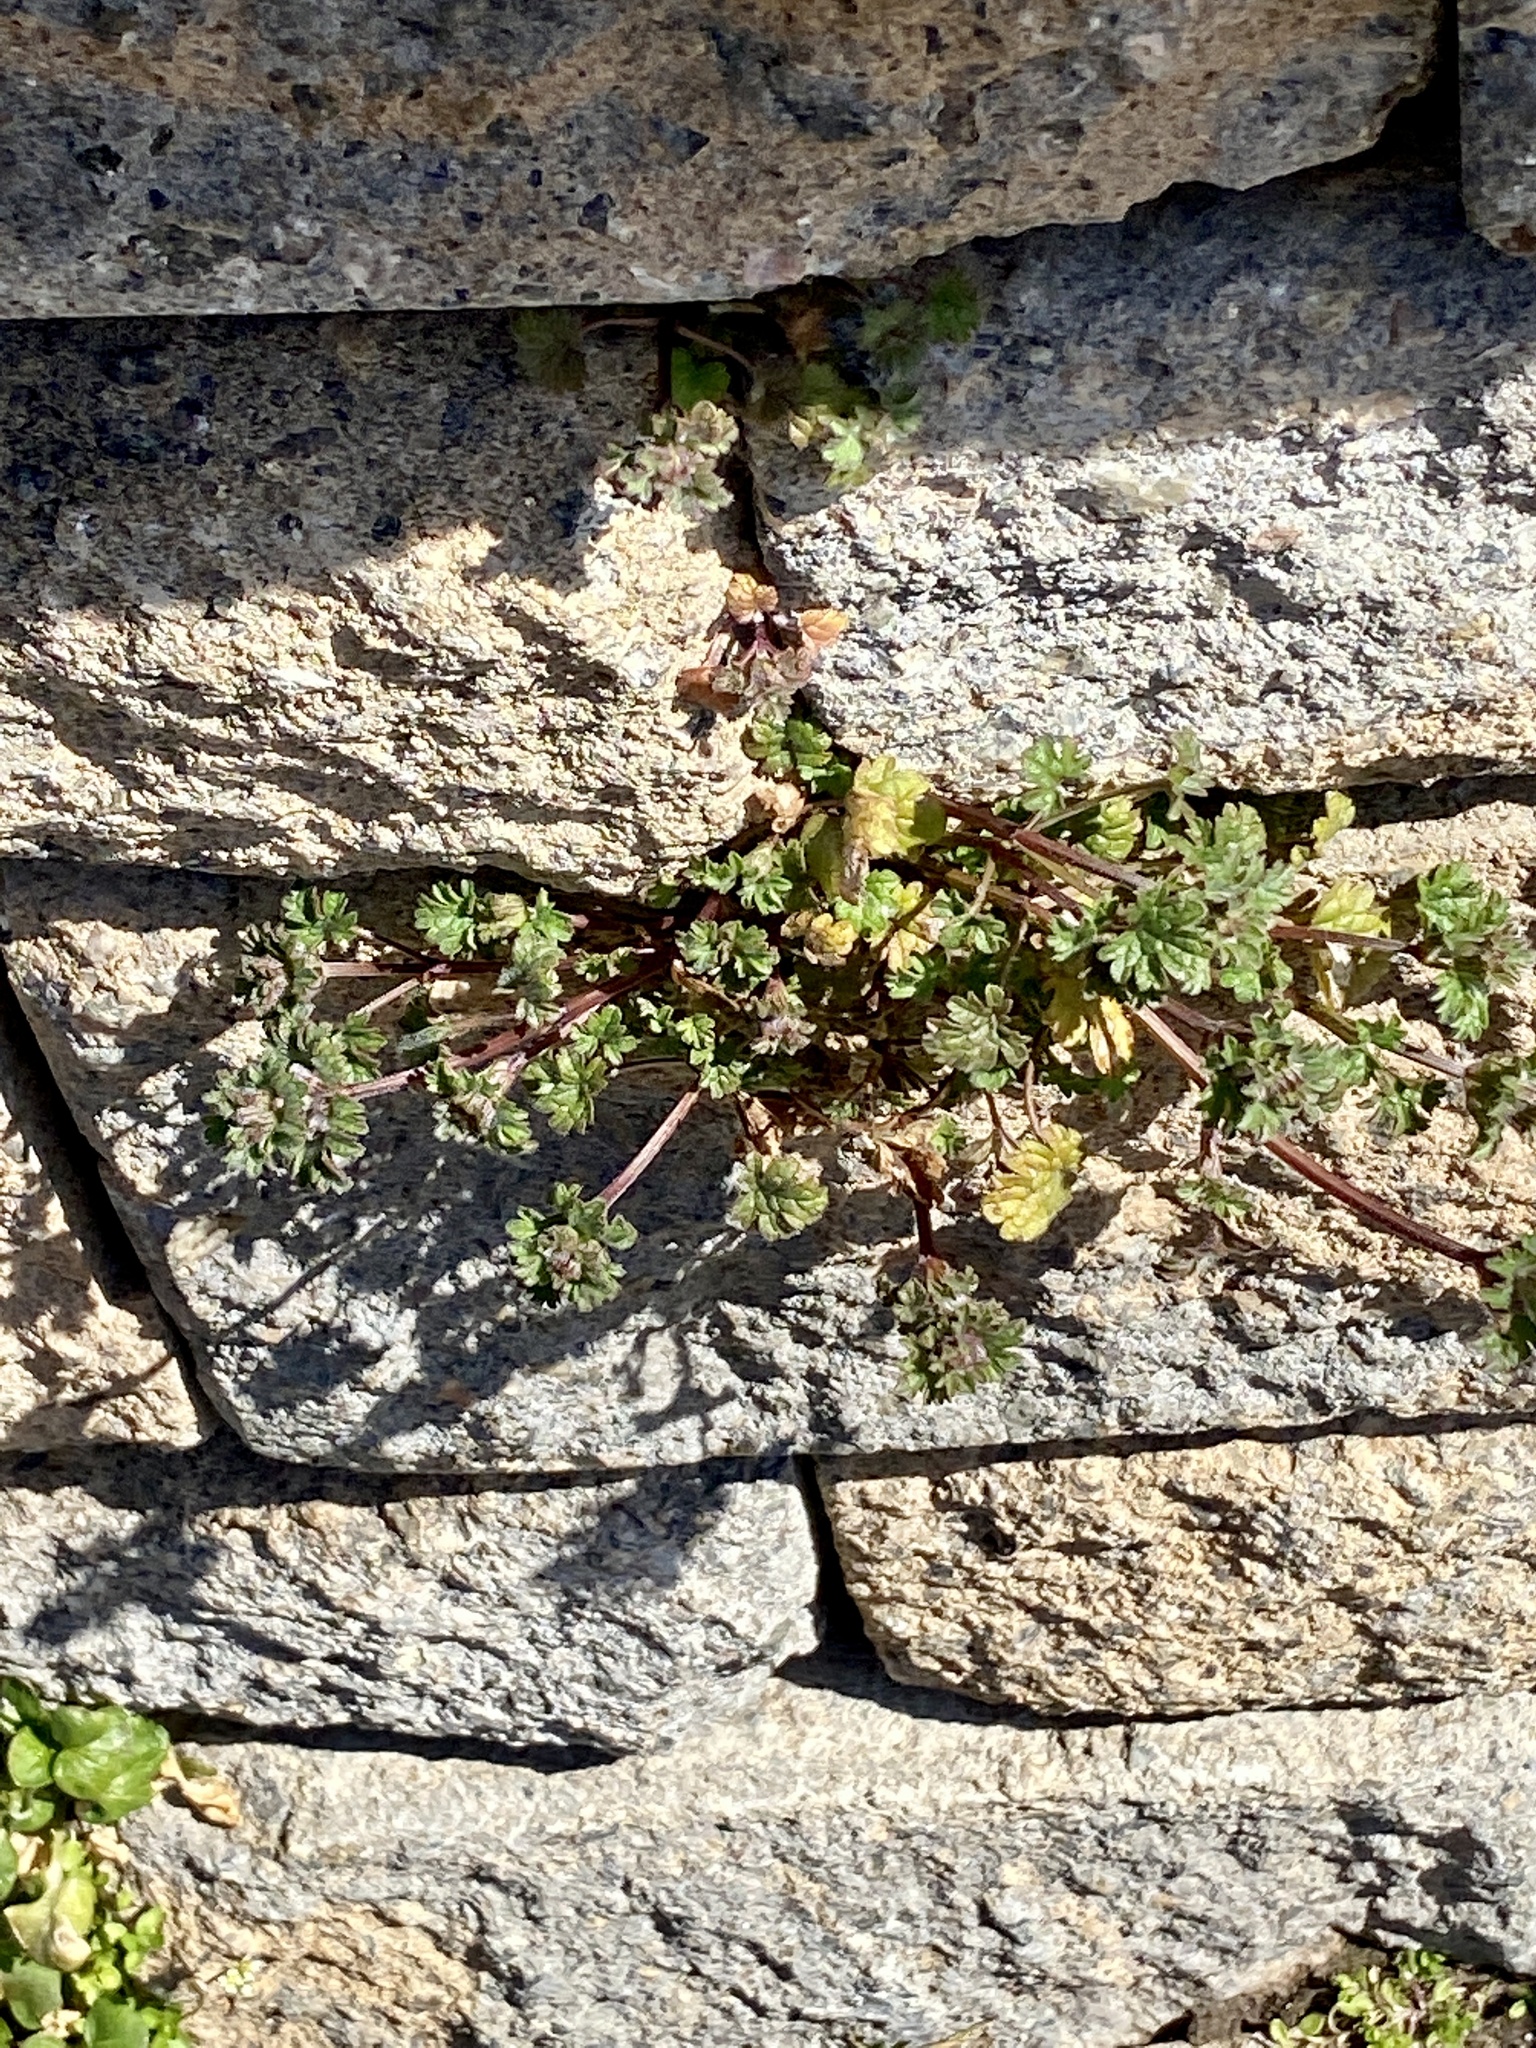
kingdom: Plantae
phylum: Tracheophyta
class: Magnoliopsida
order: Lamiales
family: Lamiaceae
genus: Lamium
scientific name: Lamium amplexicaule
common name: Henbit dead-nettle
